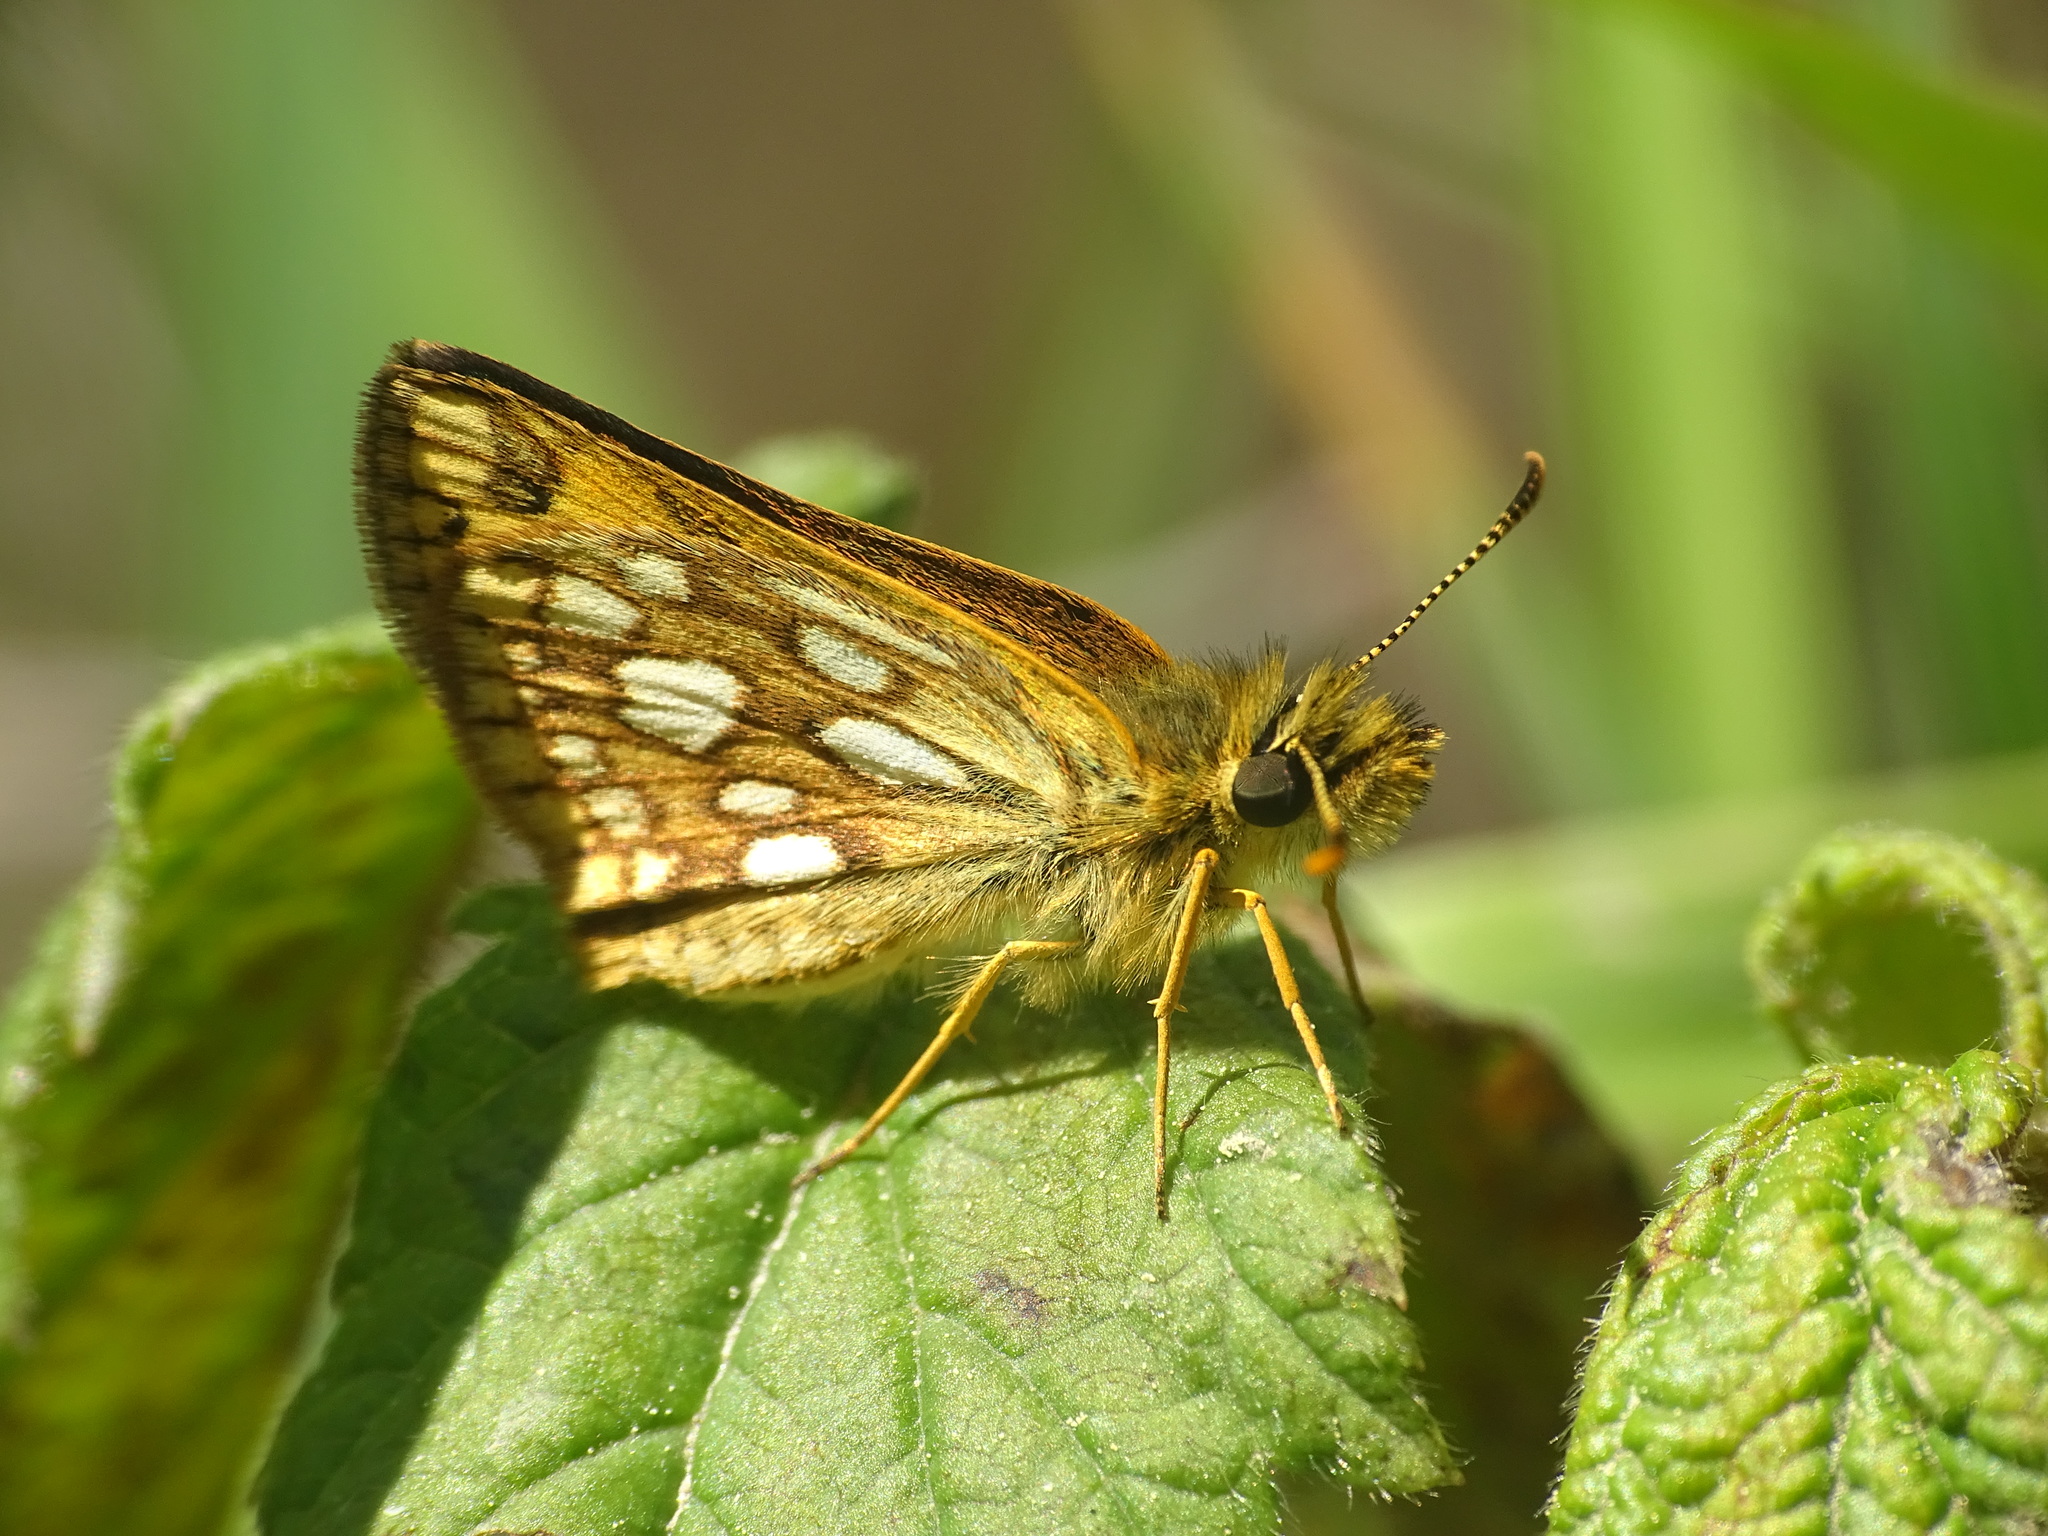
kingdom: Animalia
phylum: Arthropoda
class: Insecta
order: Lepidoptera
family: Hesperiidae
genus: Carterocephalus
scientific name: Carterocephalus mandan
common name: Arctic skipperling
